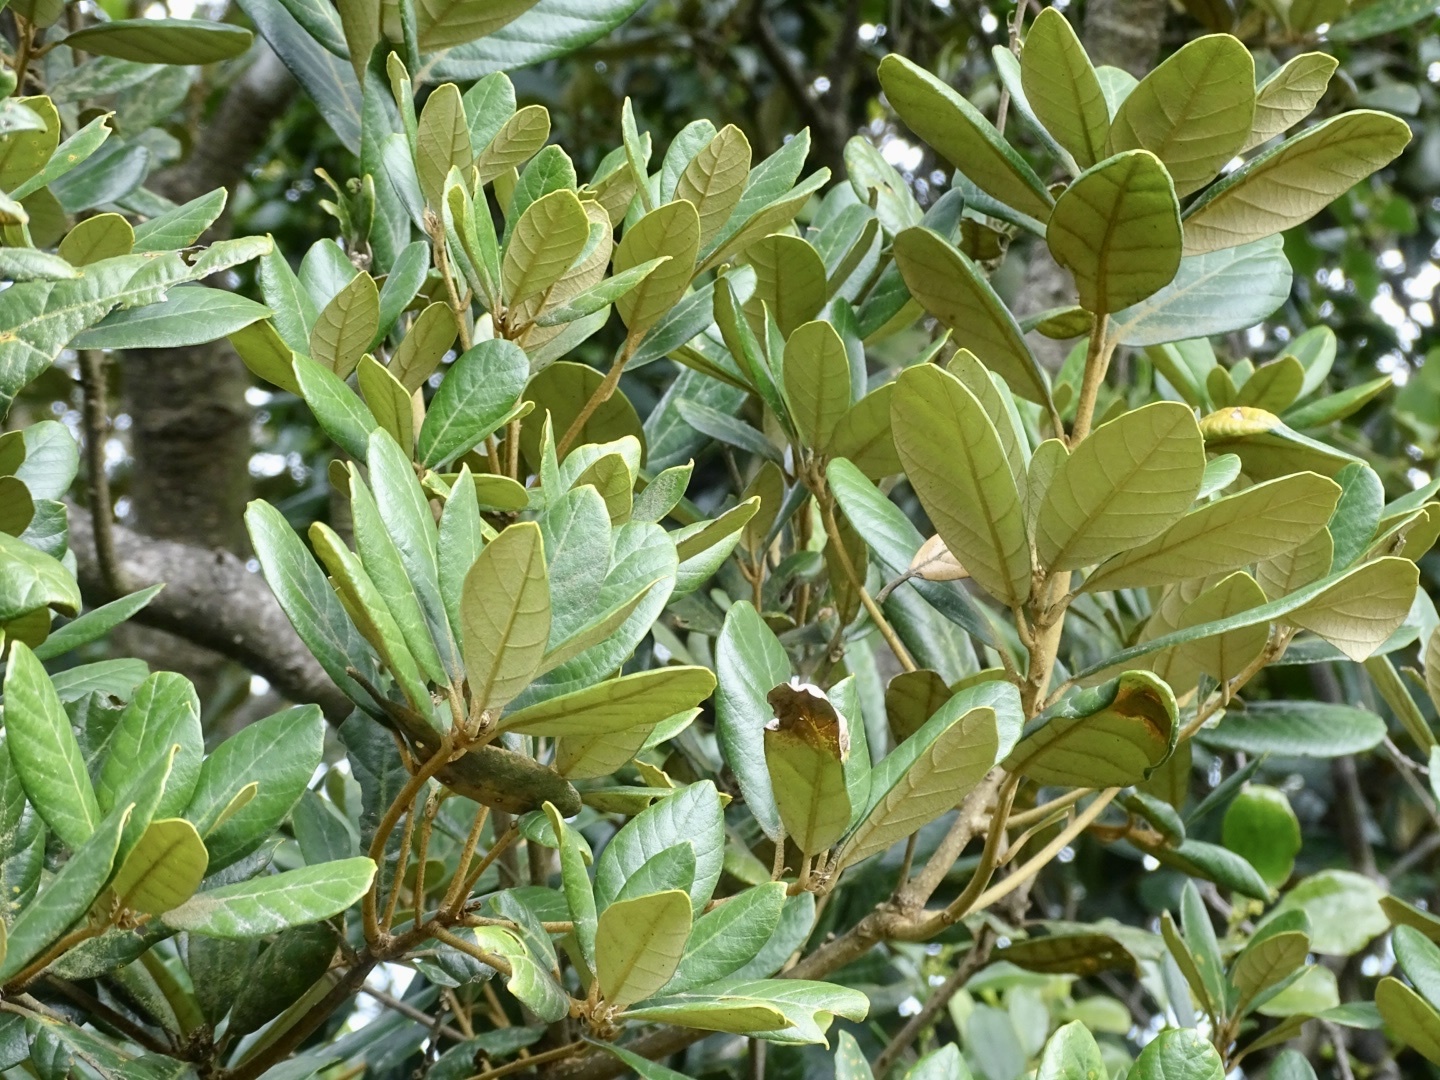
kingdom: Plantae
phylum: Tracheophyta
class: Magnoliopsida
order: Fagales
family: Fagaceae
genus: Quercus
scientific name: Quercus championii
